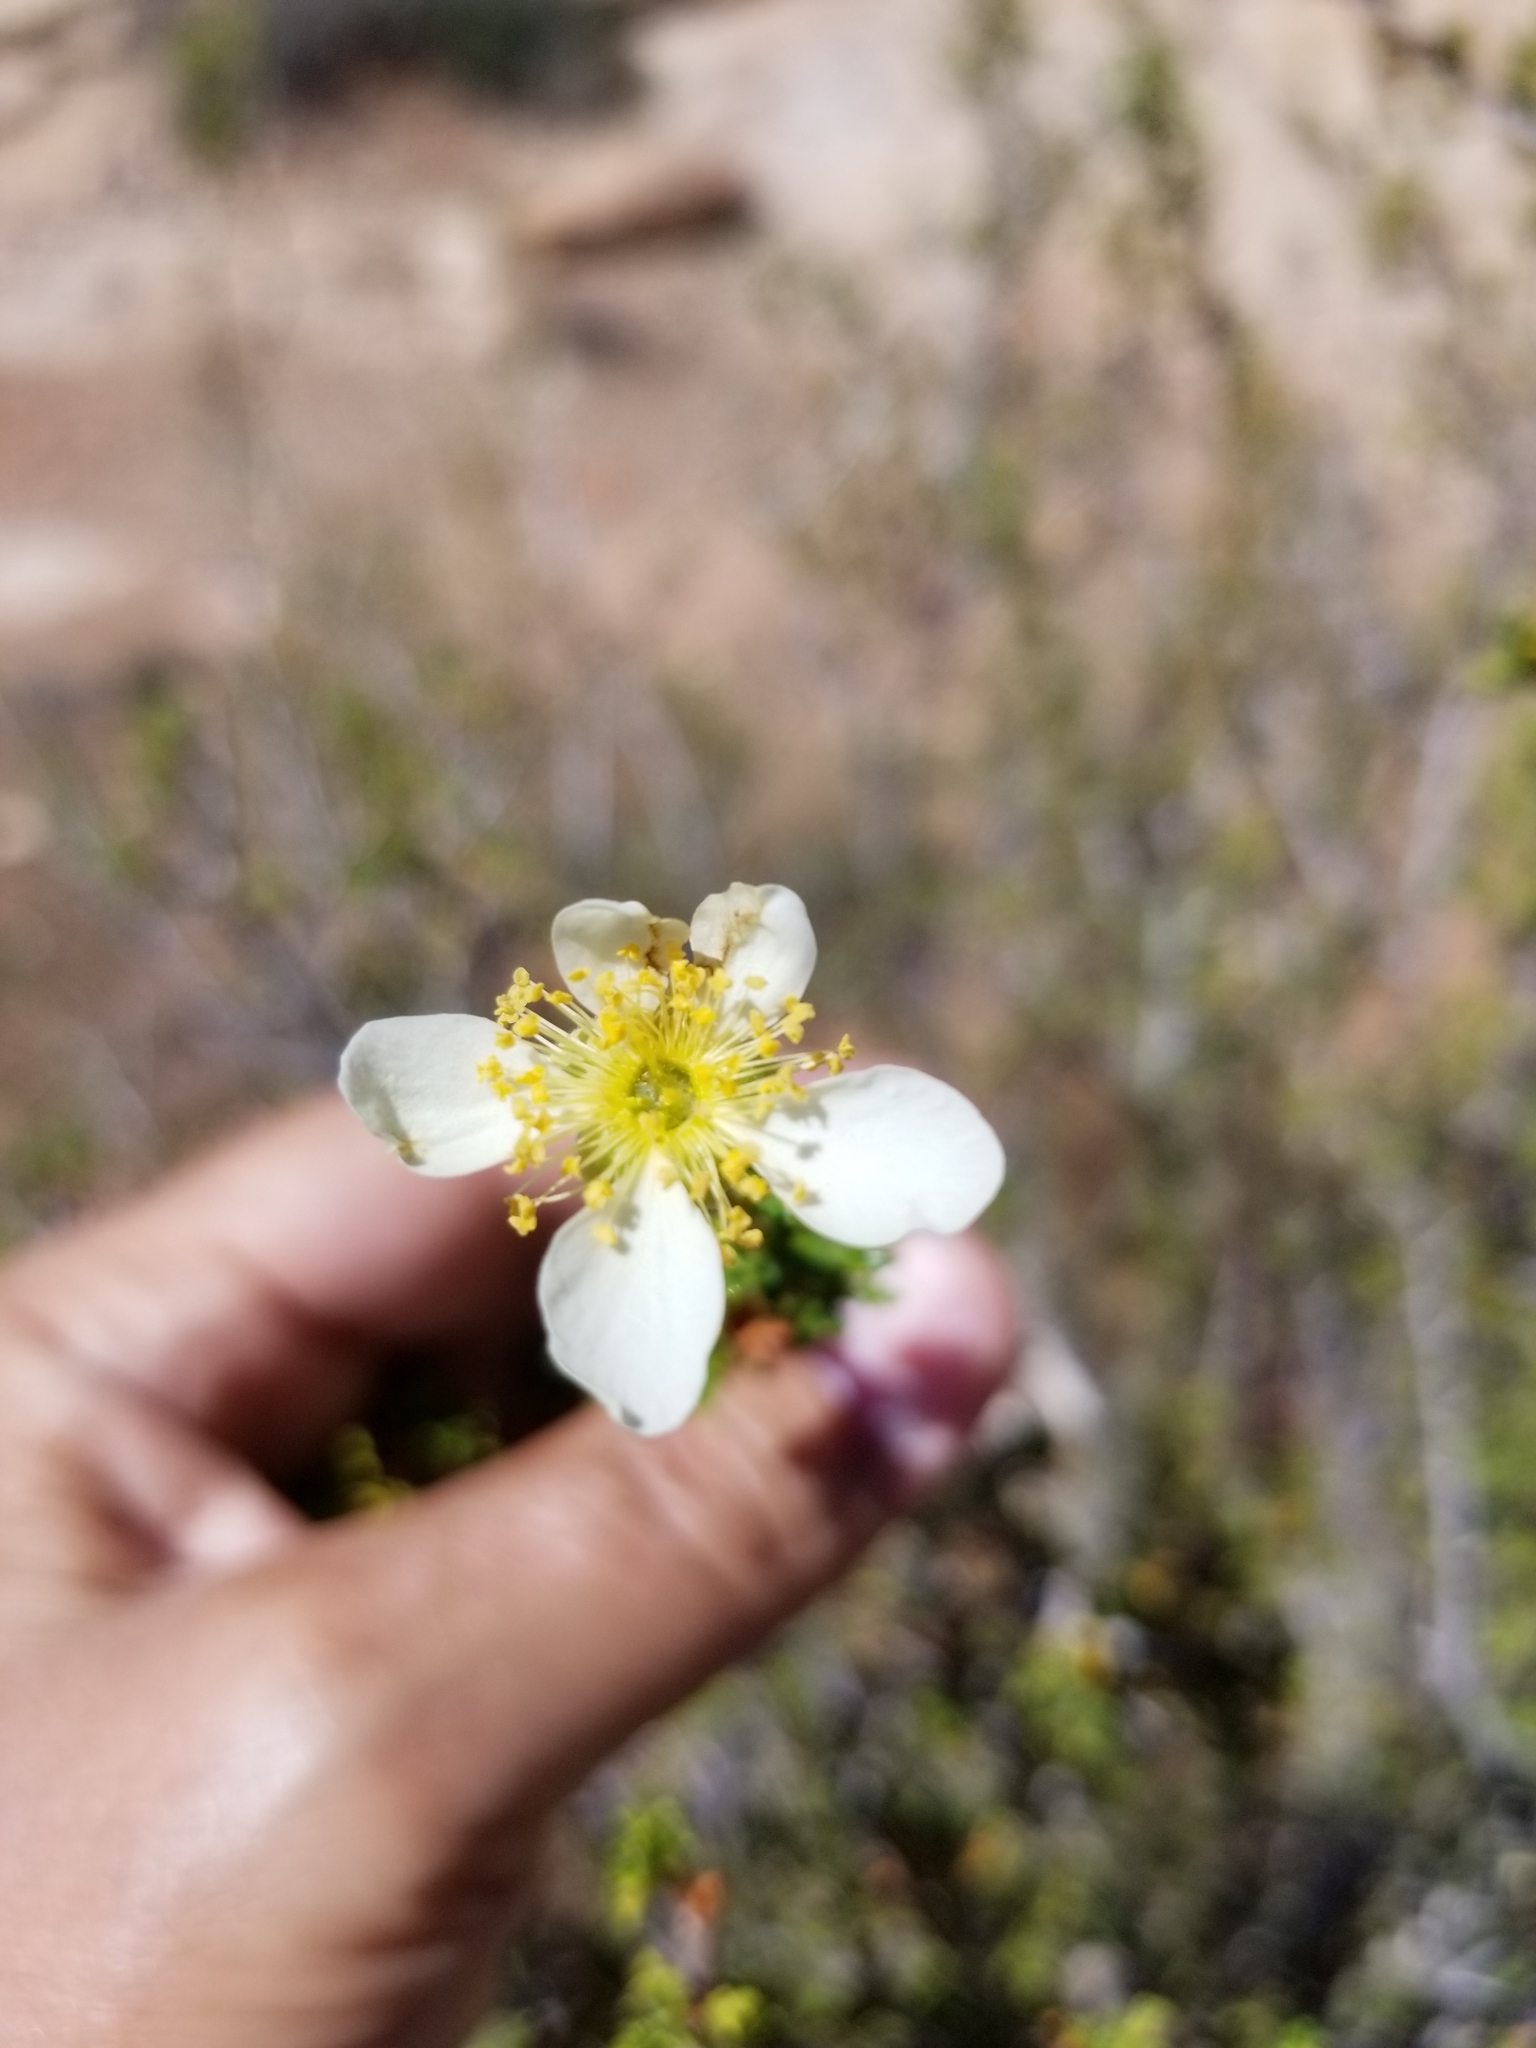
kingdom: Plantae
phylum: Tracheophyta
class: Magnoliopsida
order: Rosales
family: Rosaceae
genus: Purshia
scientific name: Purshia stansburiana
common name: Stansbury's cliffrose
